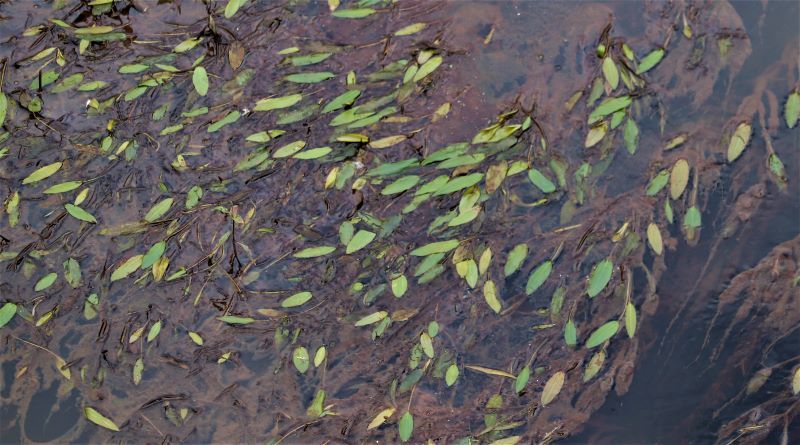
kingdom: Plantae
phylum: Tracheophyta
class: Liliopsida
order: Alismatales
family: Aponogetonaceae
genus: Aponogeton
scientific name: Aponogeton distachyos
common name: Cape-pondweed
